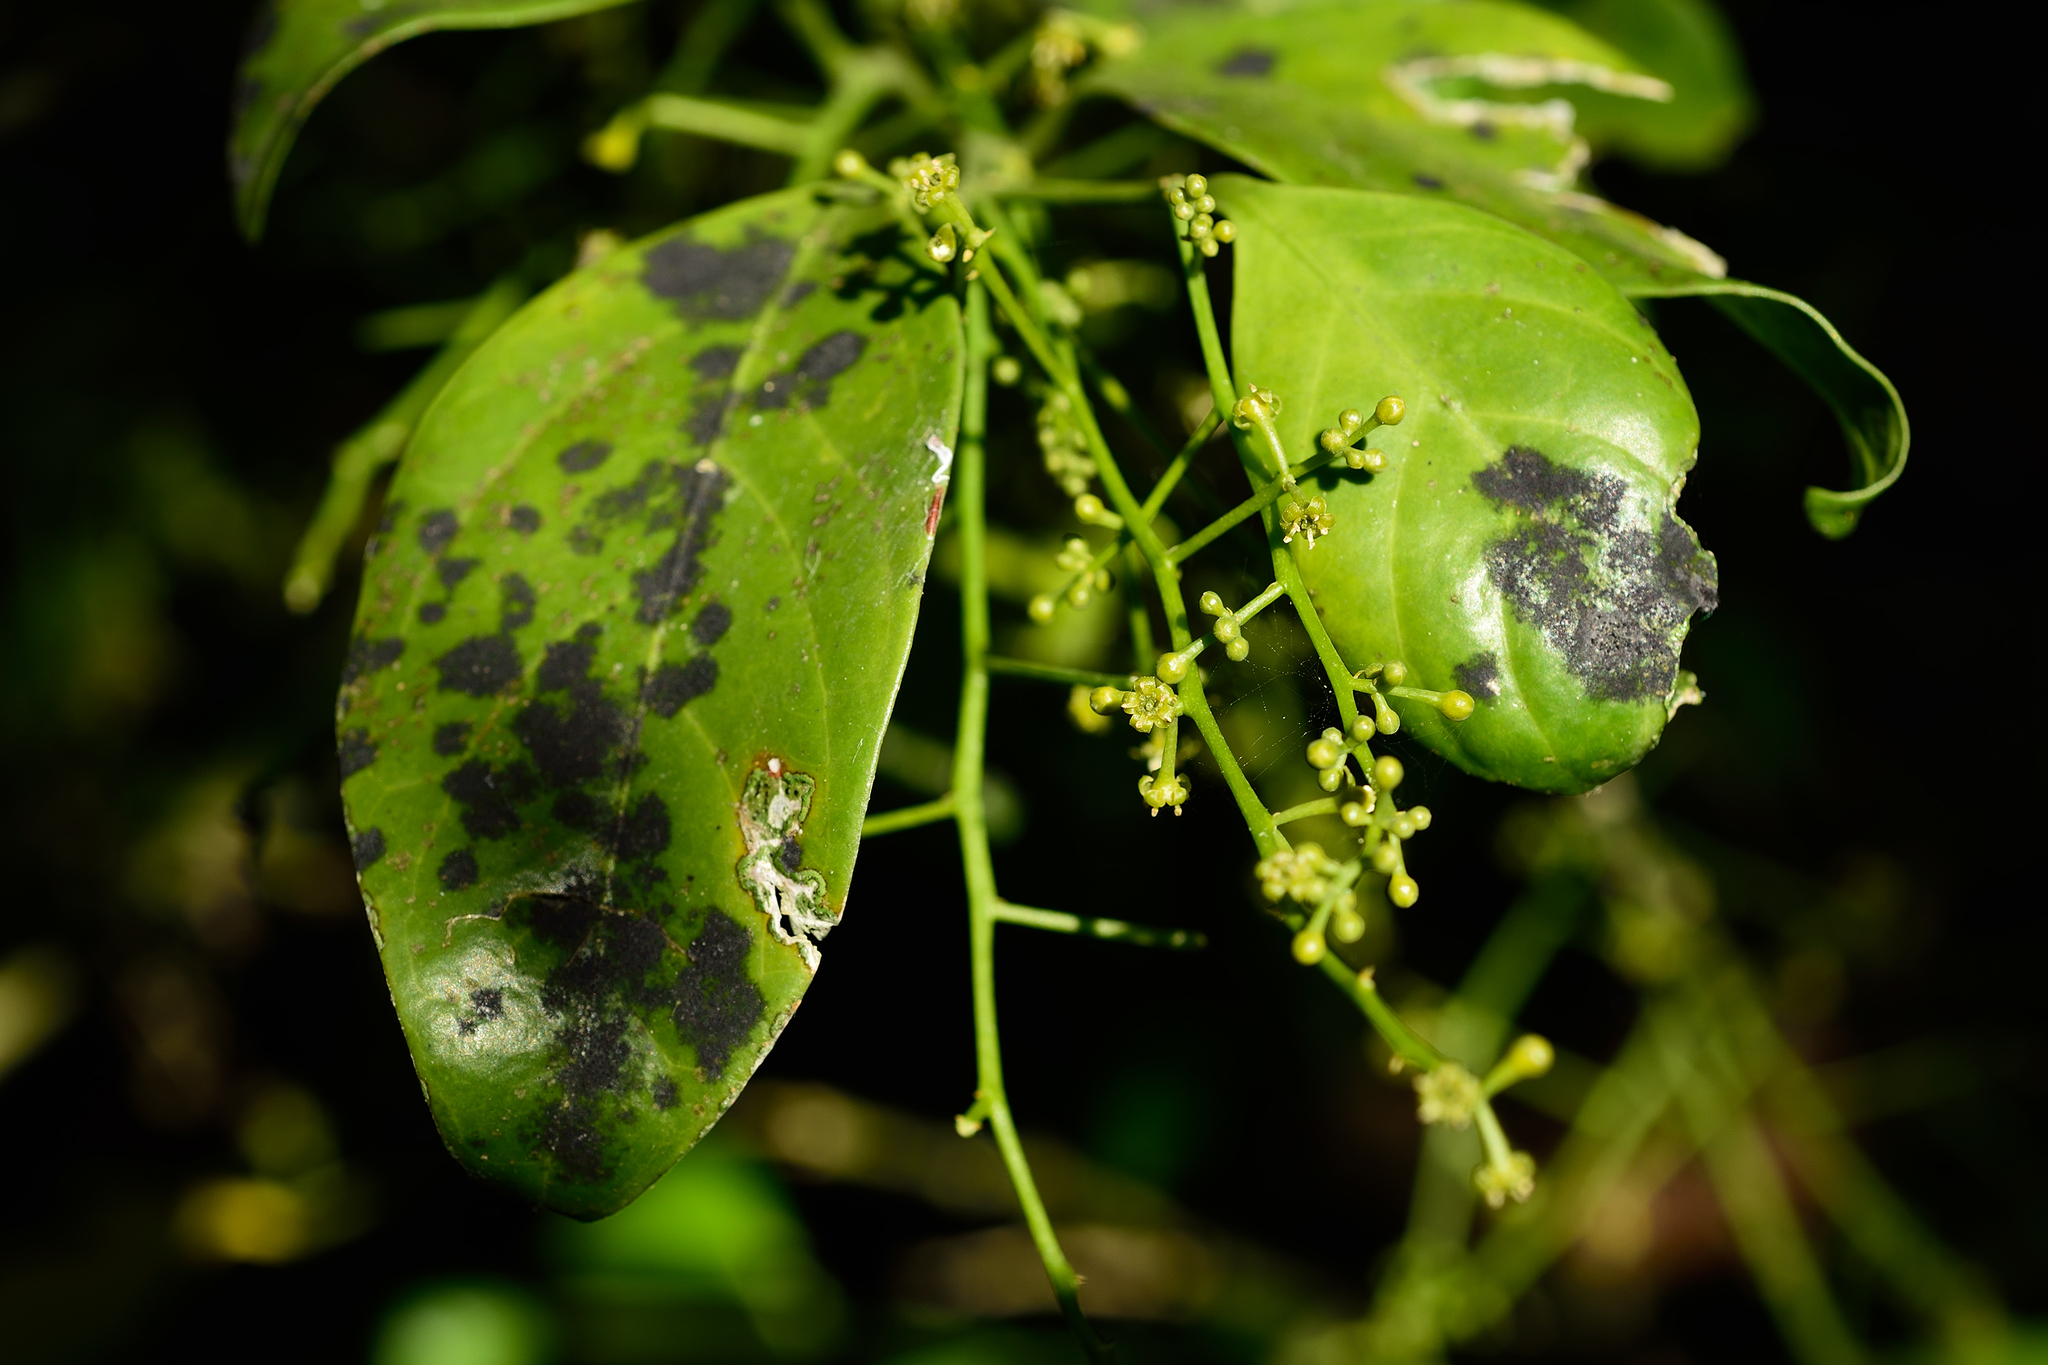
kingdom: Plantae
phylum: Tracheophyta
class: Magnoliopsida
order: Santalales
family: Opiliaceae
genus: Champereia
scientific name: Champereia manillana
